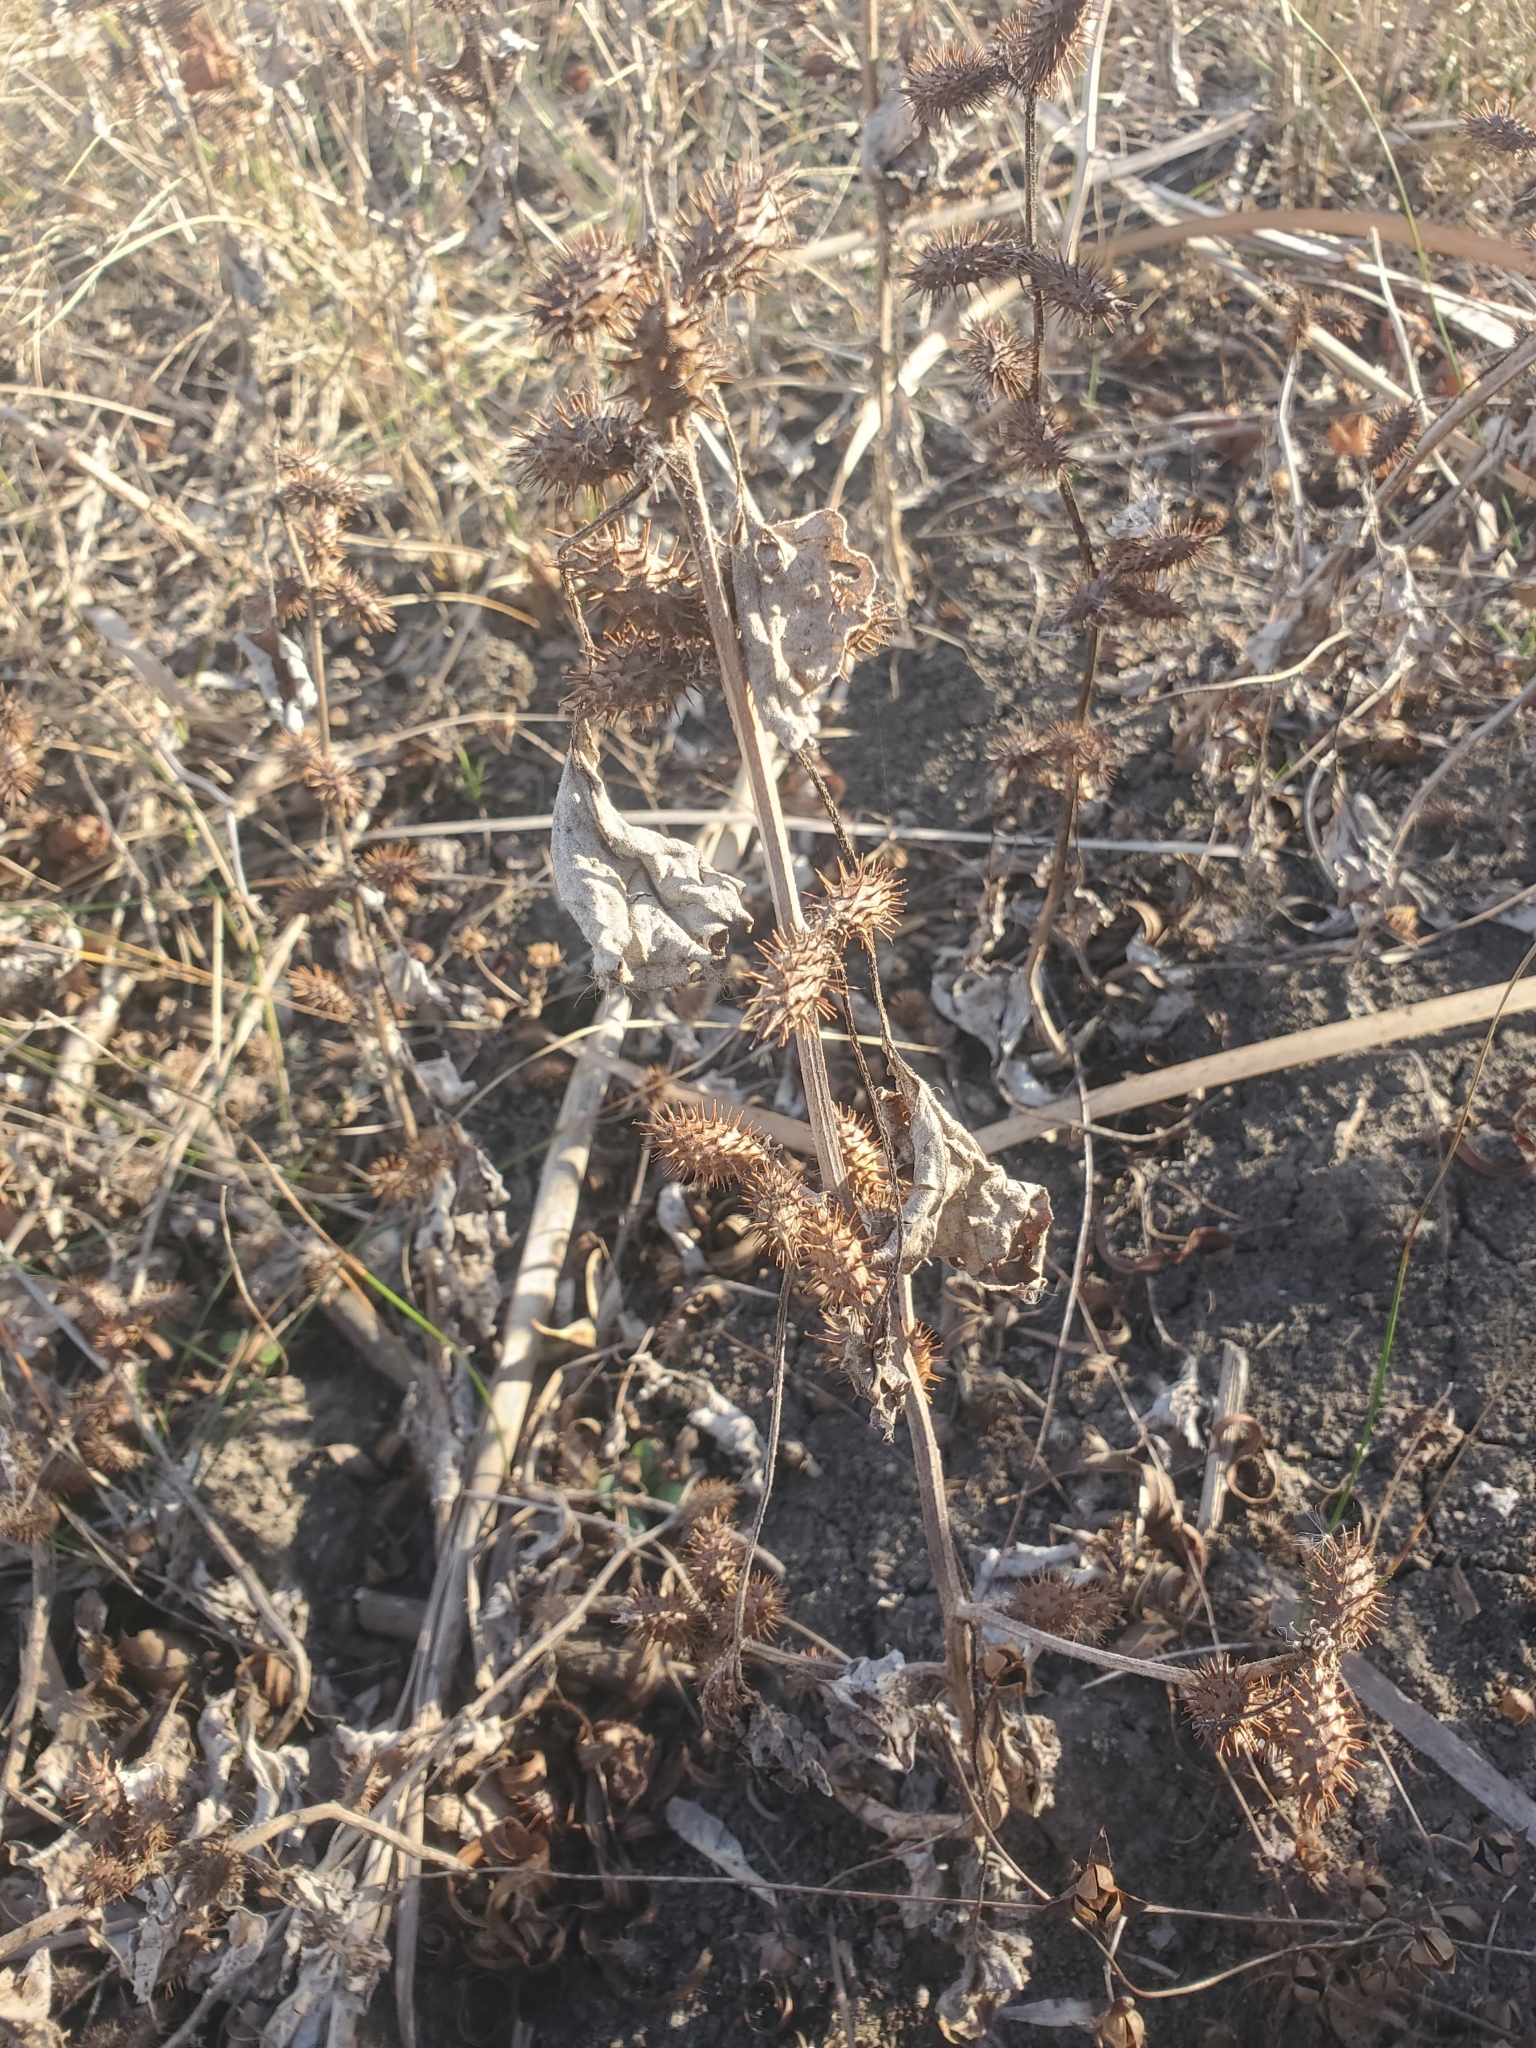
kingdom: Plantae
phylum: Tracheophyta
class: Magnoliopsida
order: Asterales
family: Asteraceae
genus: Xanthium
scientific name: Xanthium strumarium
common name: Rough cocklebur
